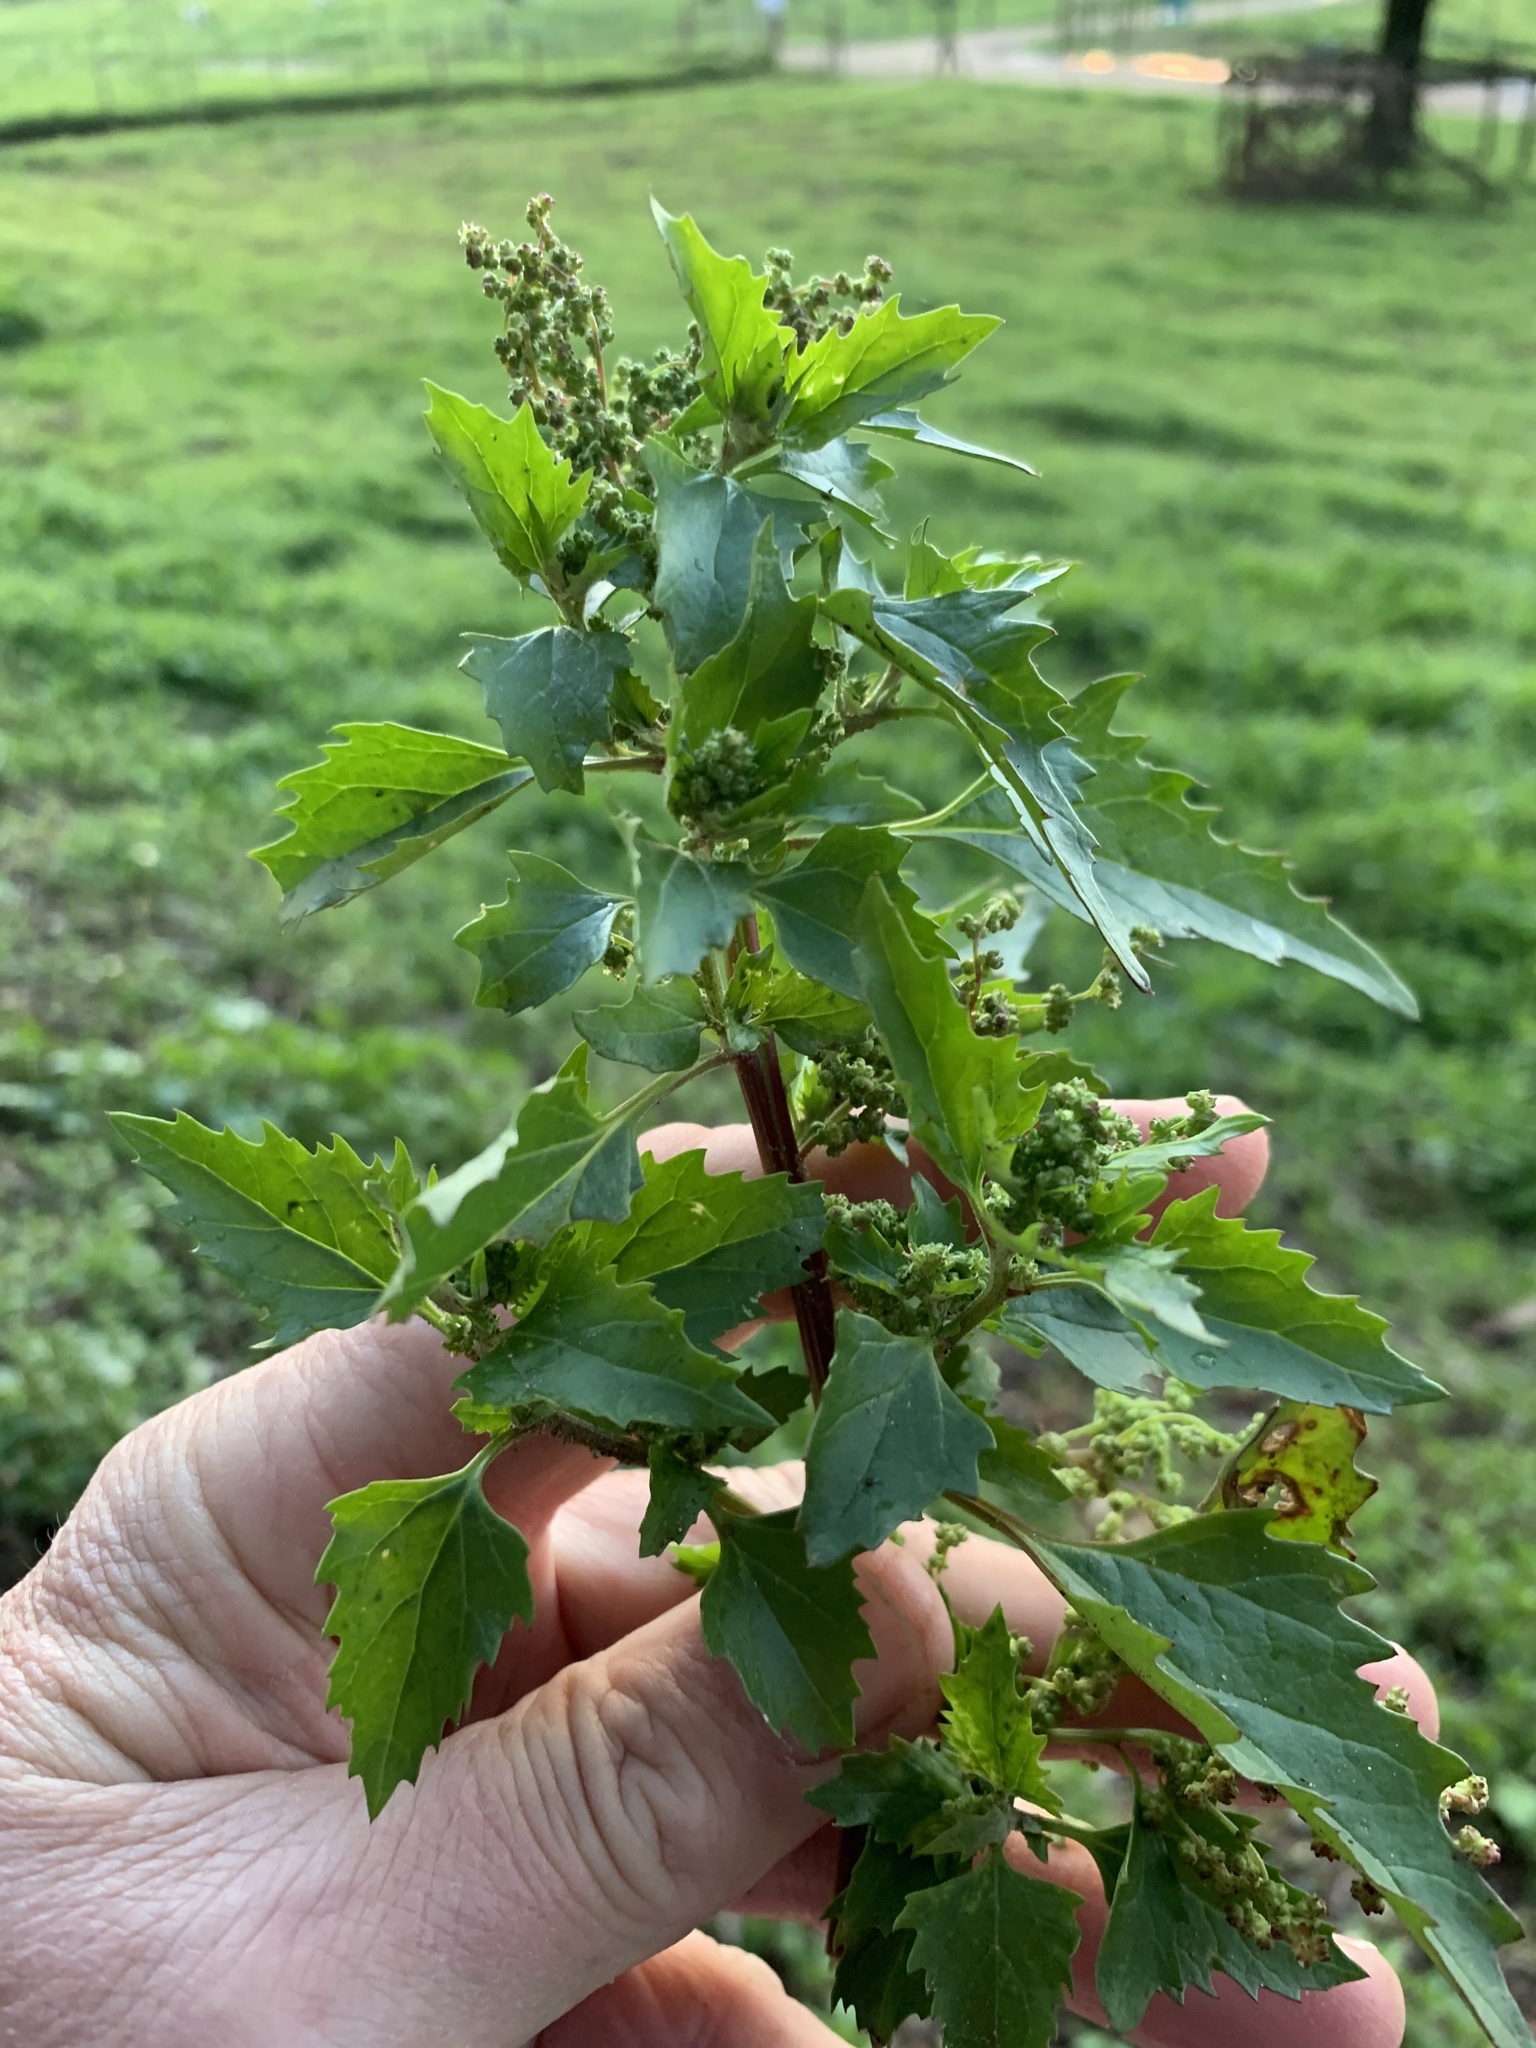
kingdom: Plantae
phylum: Tracheophyta
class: Magnoliopsida
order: Caryophyllales
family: Amaranthaceae
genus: Chenopodiastrum
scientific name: Chenopodiastrum murale
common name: Sowbane
